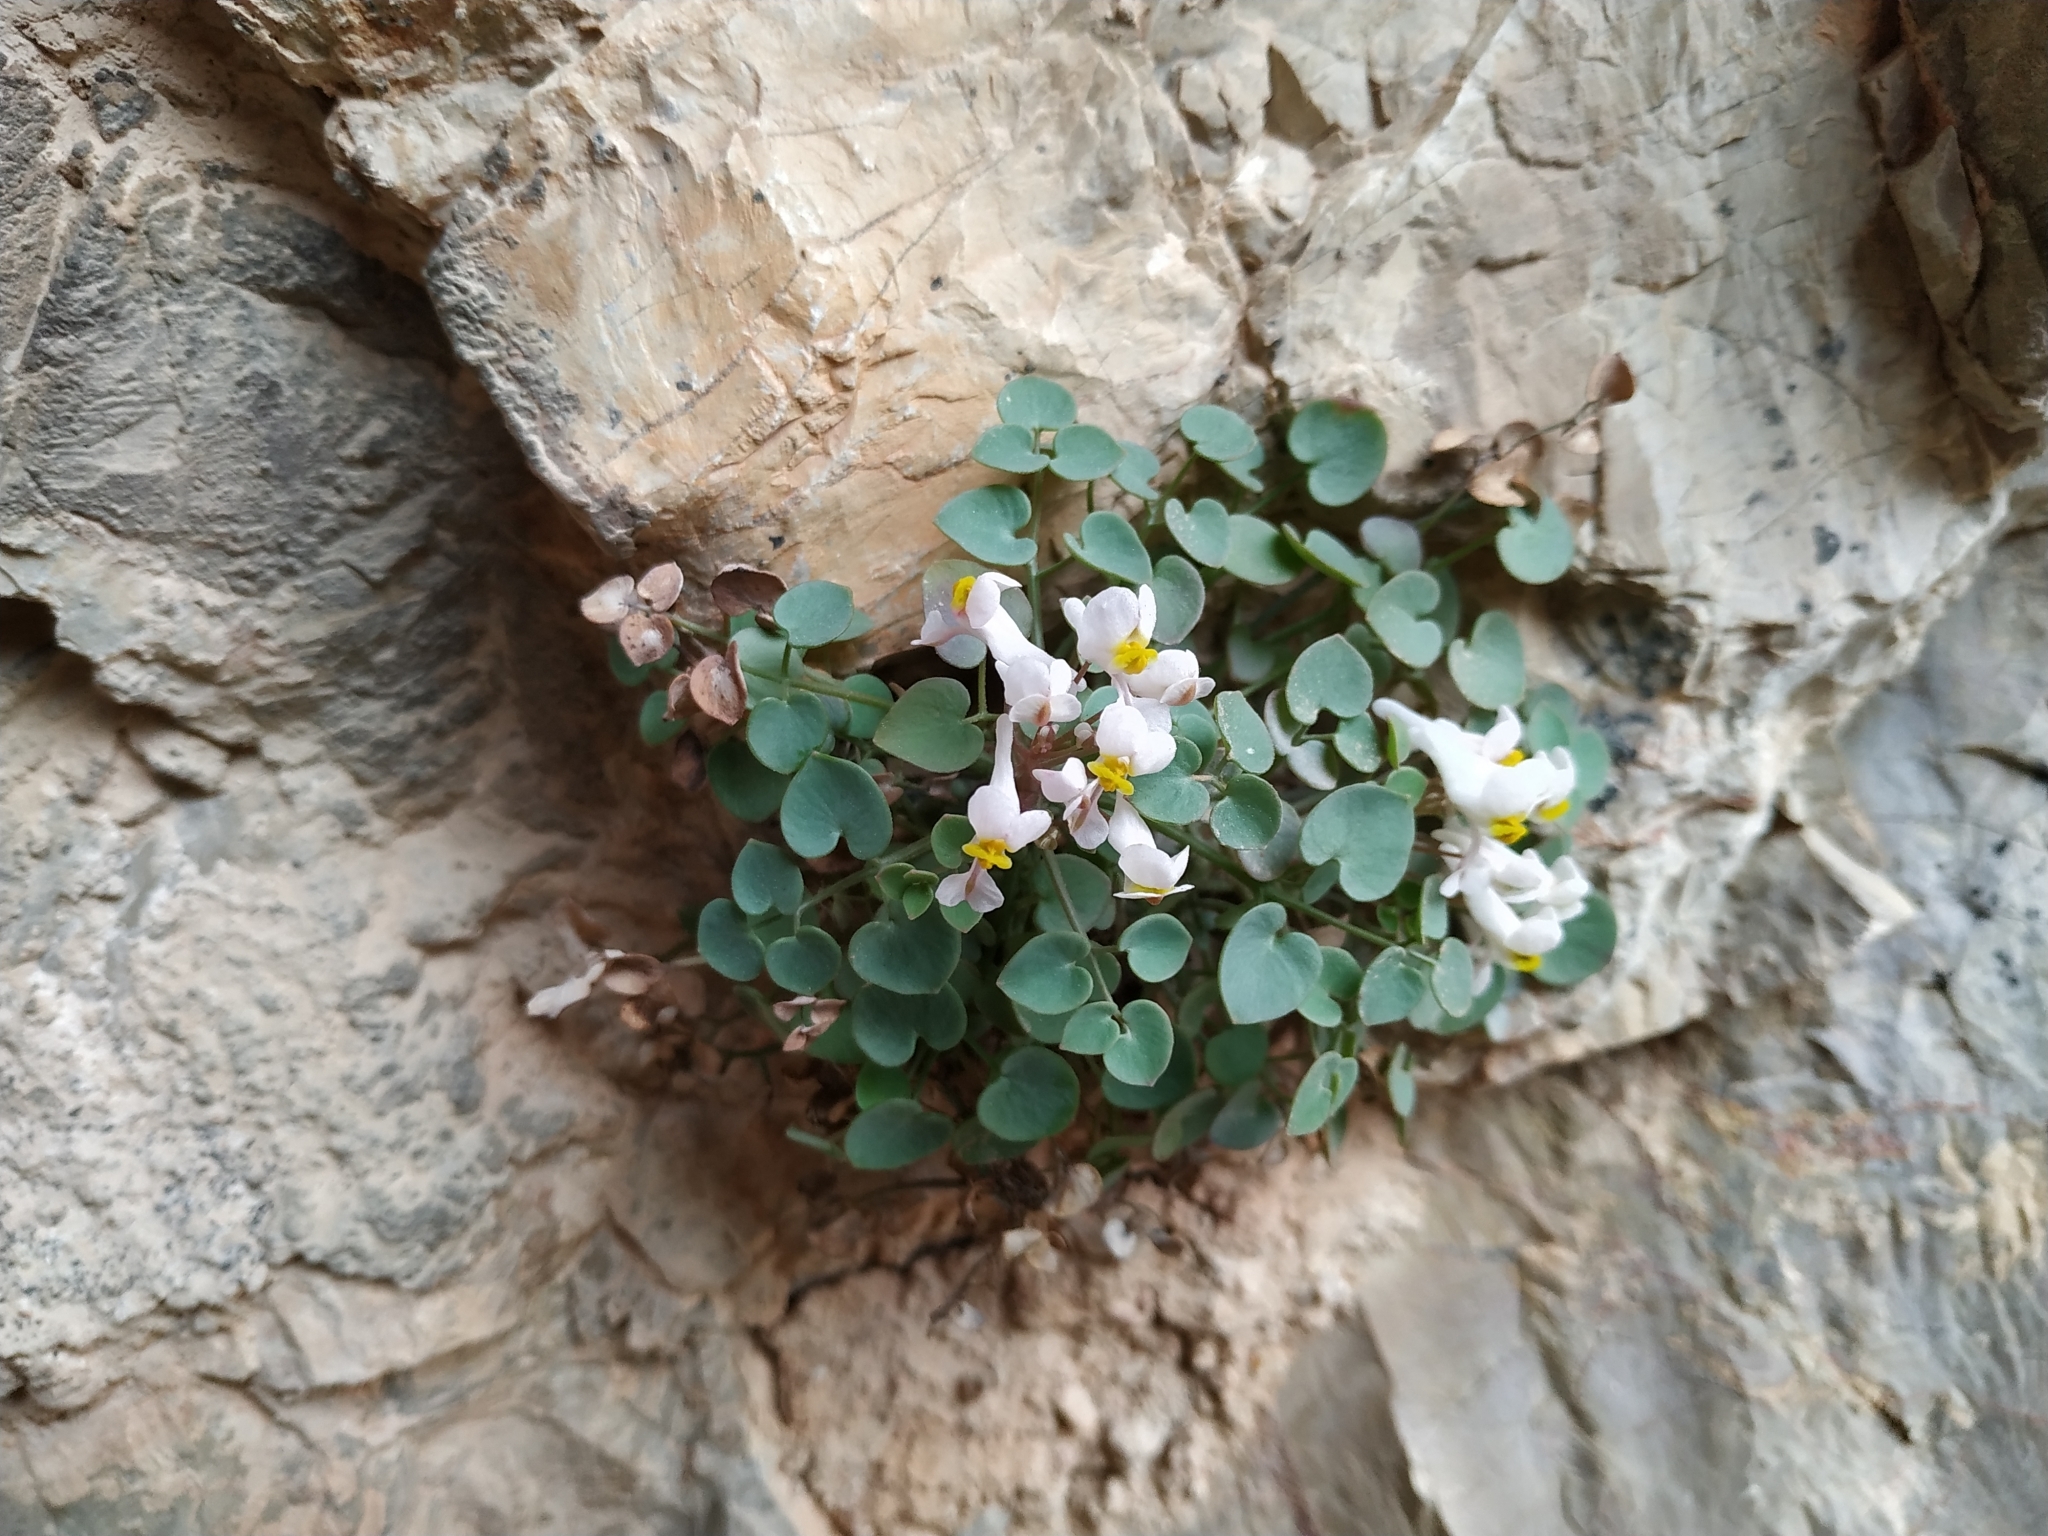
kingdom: Plantae
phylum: Tracheophyta
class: Magnoliopsida
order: Ranunculales
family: Papaveraceae
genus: Sarcocapnos
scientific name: Sarcocapnos enneaphylla
